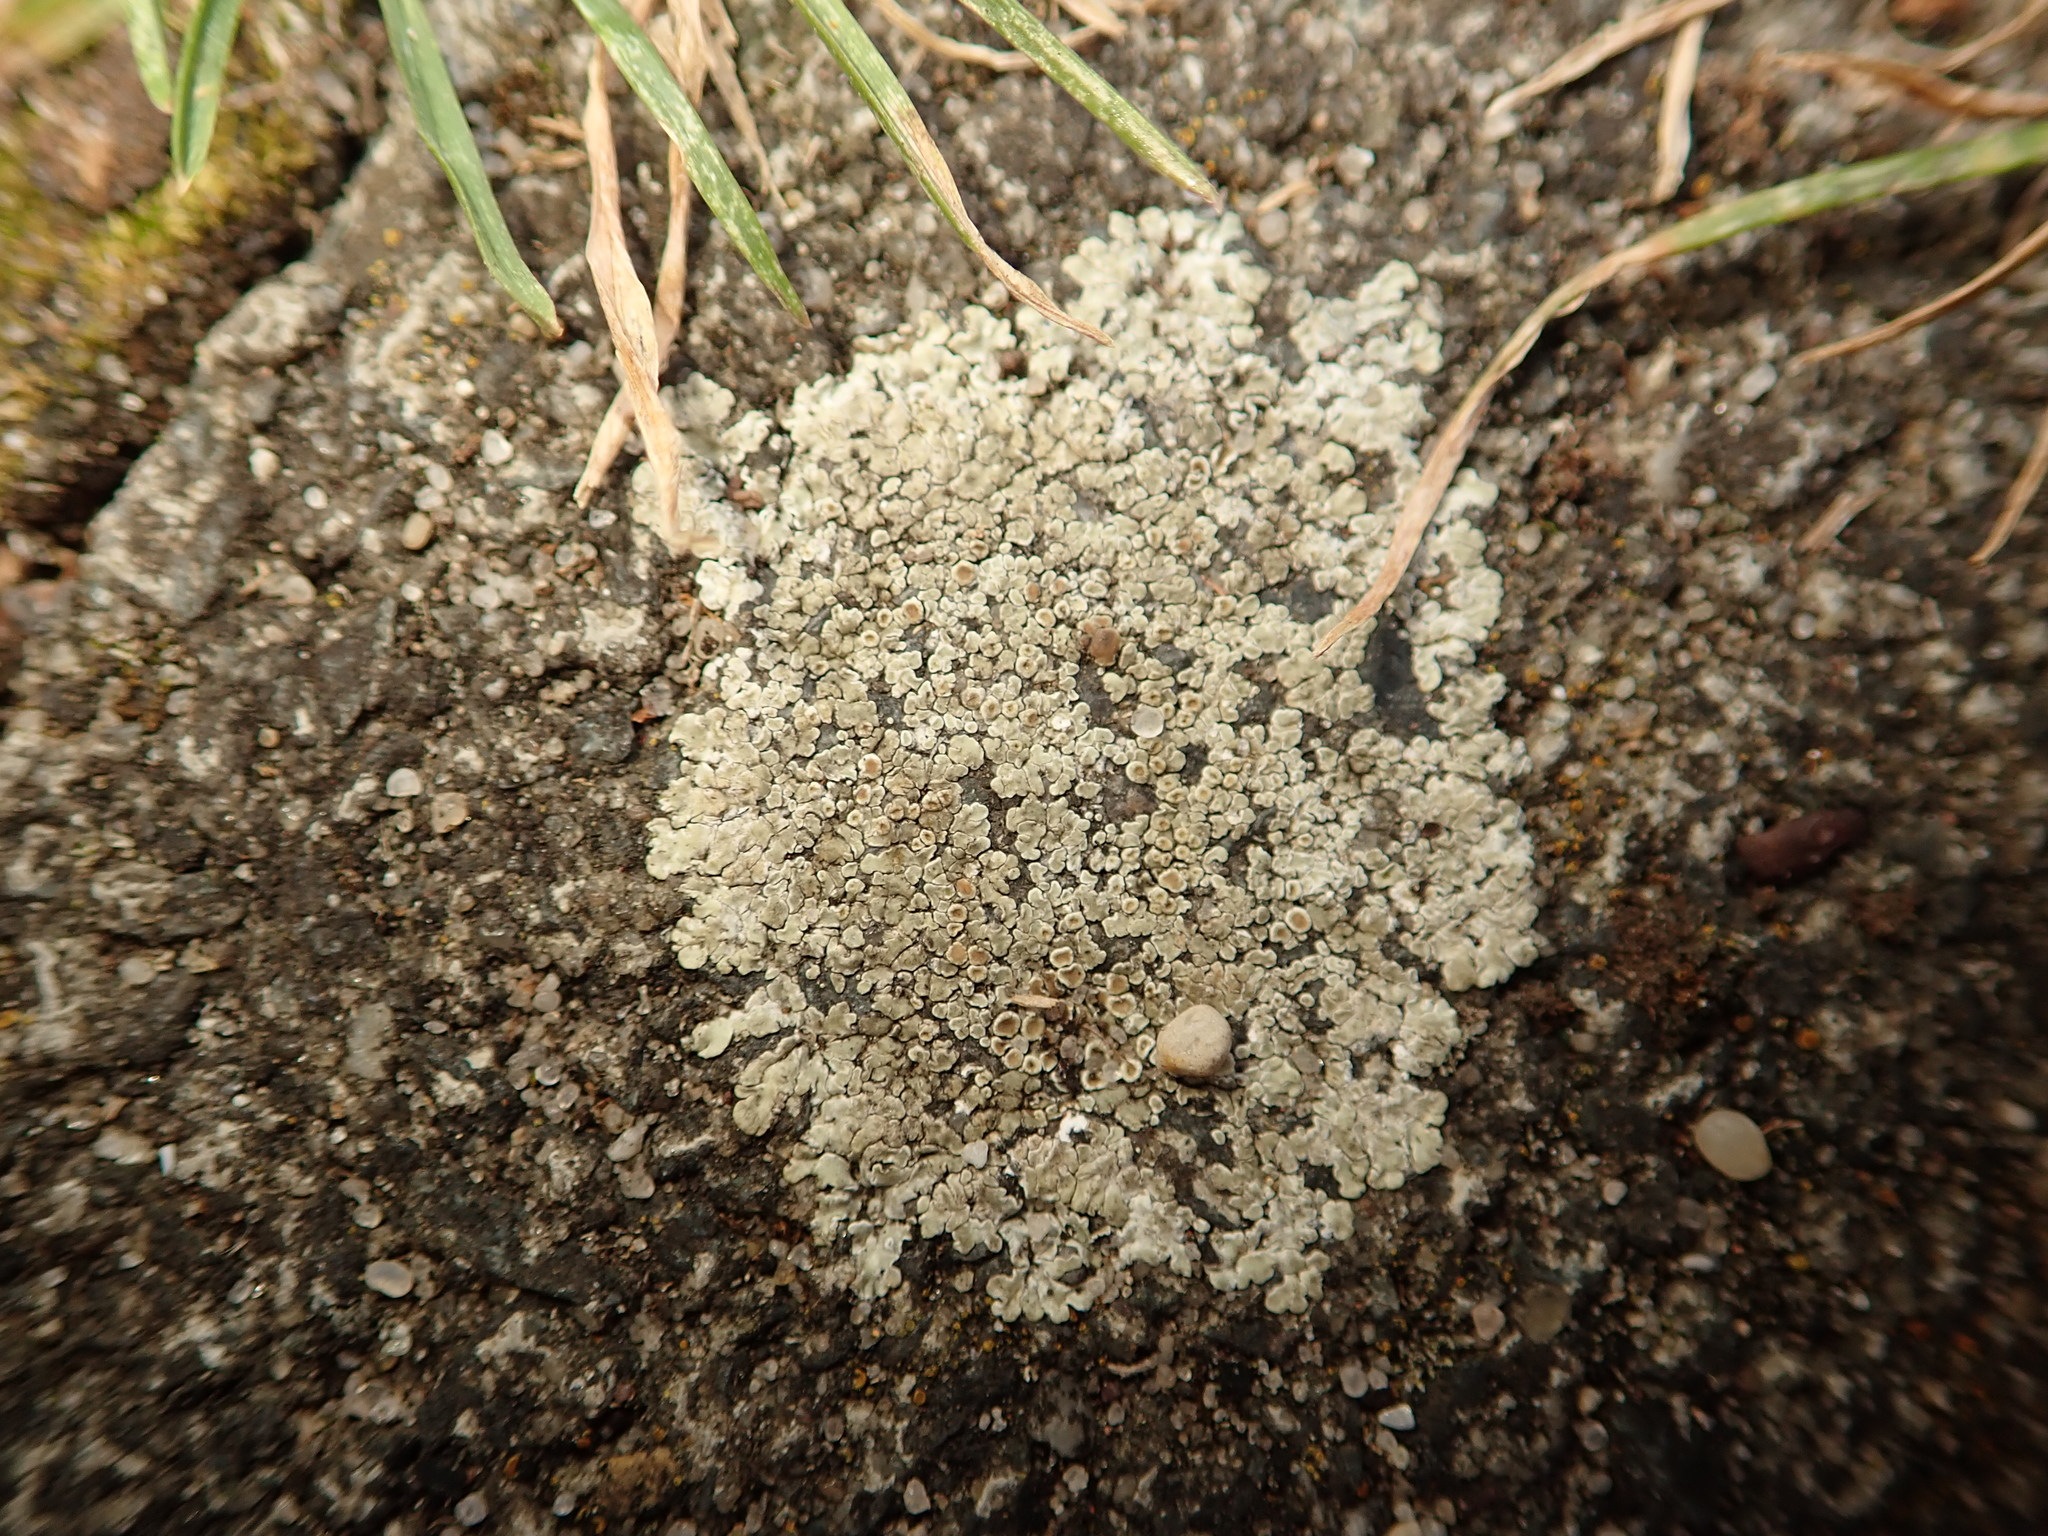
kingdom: Fungi
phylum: Ascomycota
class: Lecanoromycetes
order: Lecanorales
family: Lecanoraceae
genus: Protoparmeliopsis
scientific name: Protoparmeliopsis muralis
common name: Stonewall rim lichen
